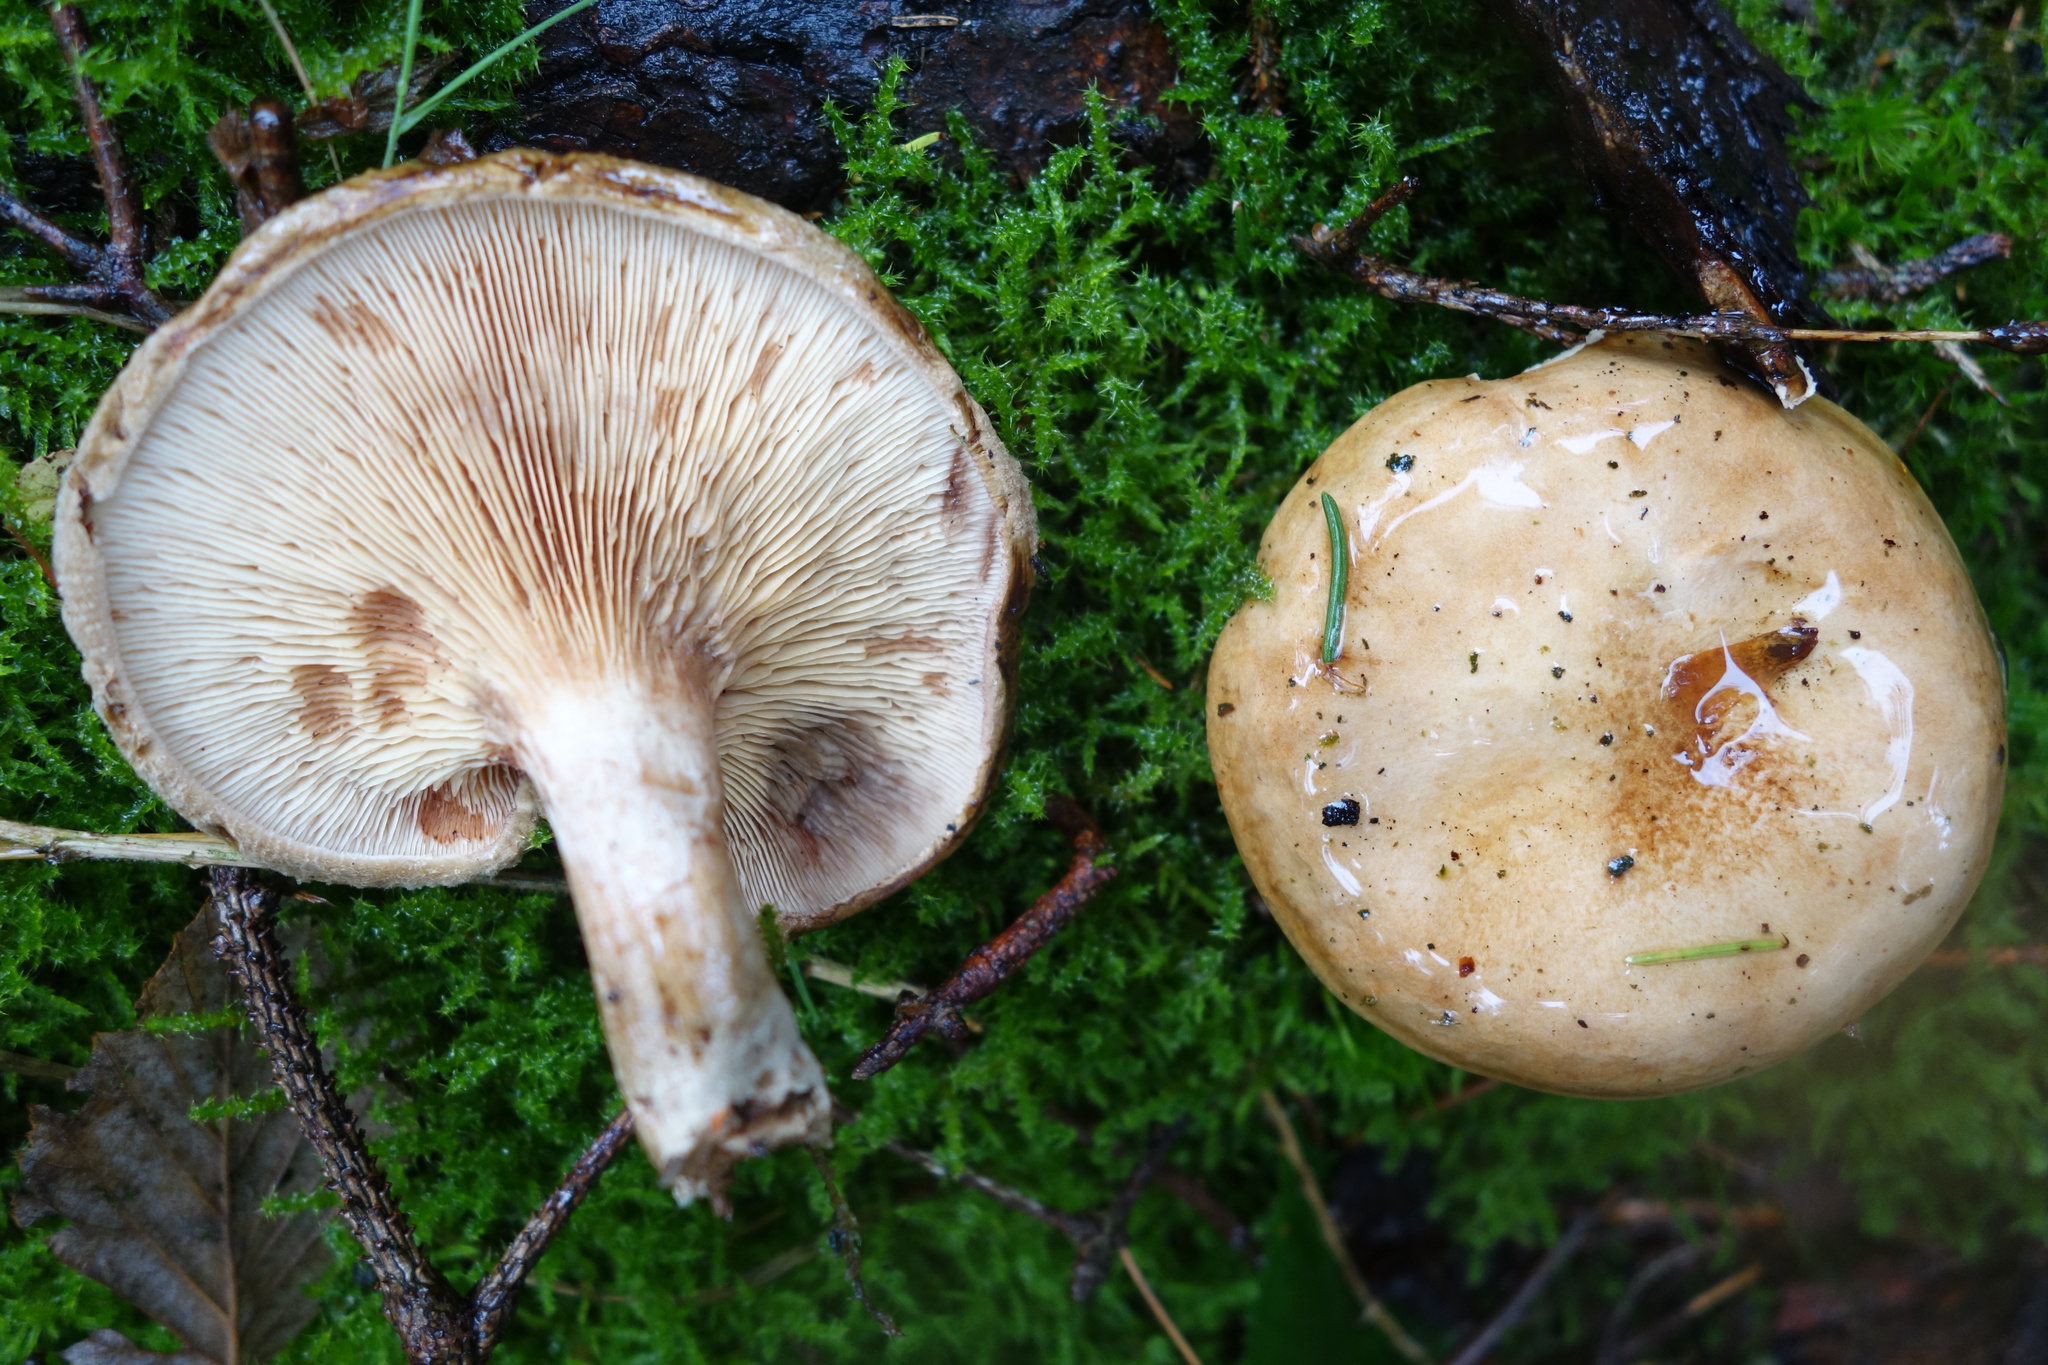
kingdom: Fungi
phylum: Basidiomycota
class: Agaricomycetes
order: Boletales
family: Paxillaceae
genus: Paxillus
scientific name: Paxillus involutus
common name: Brown roll rim
